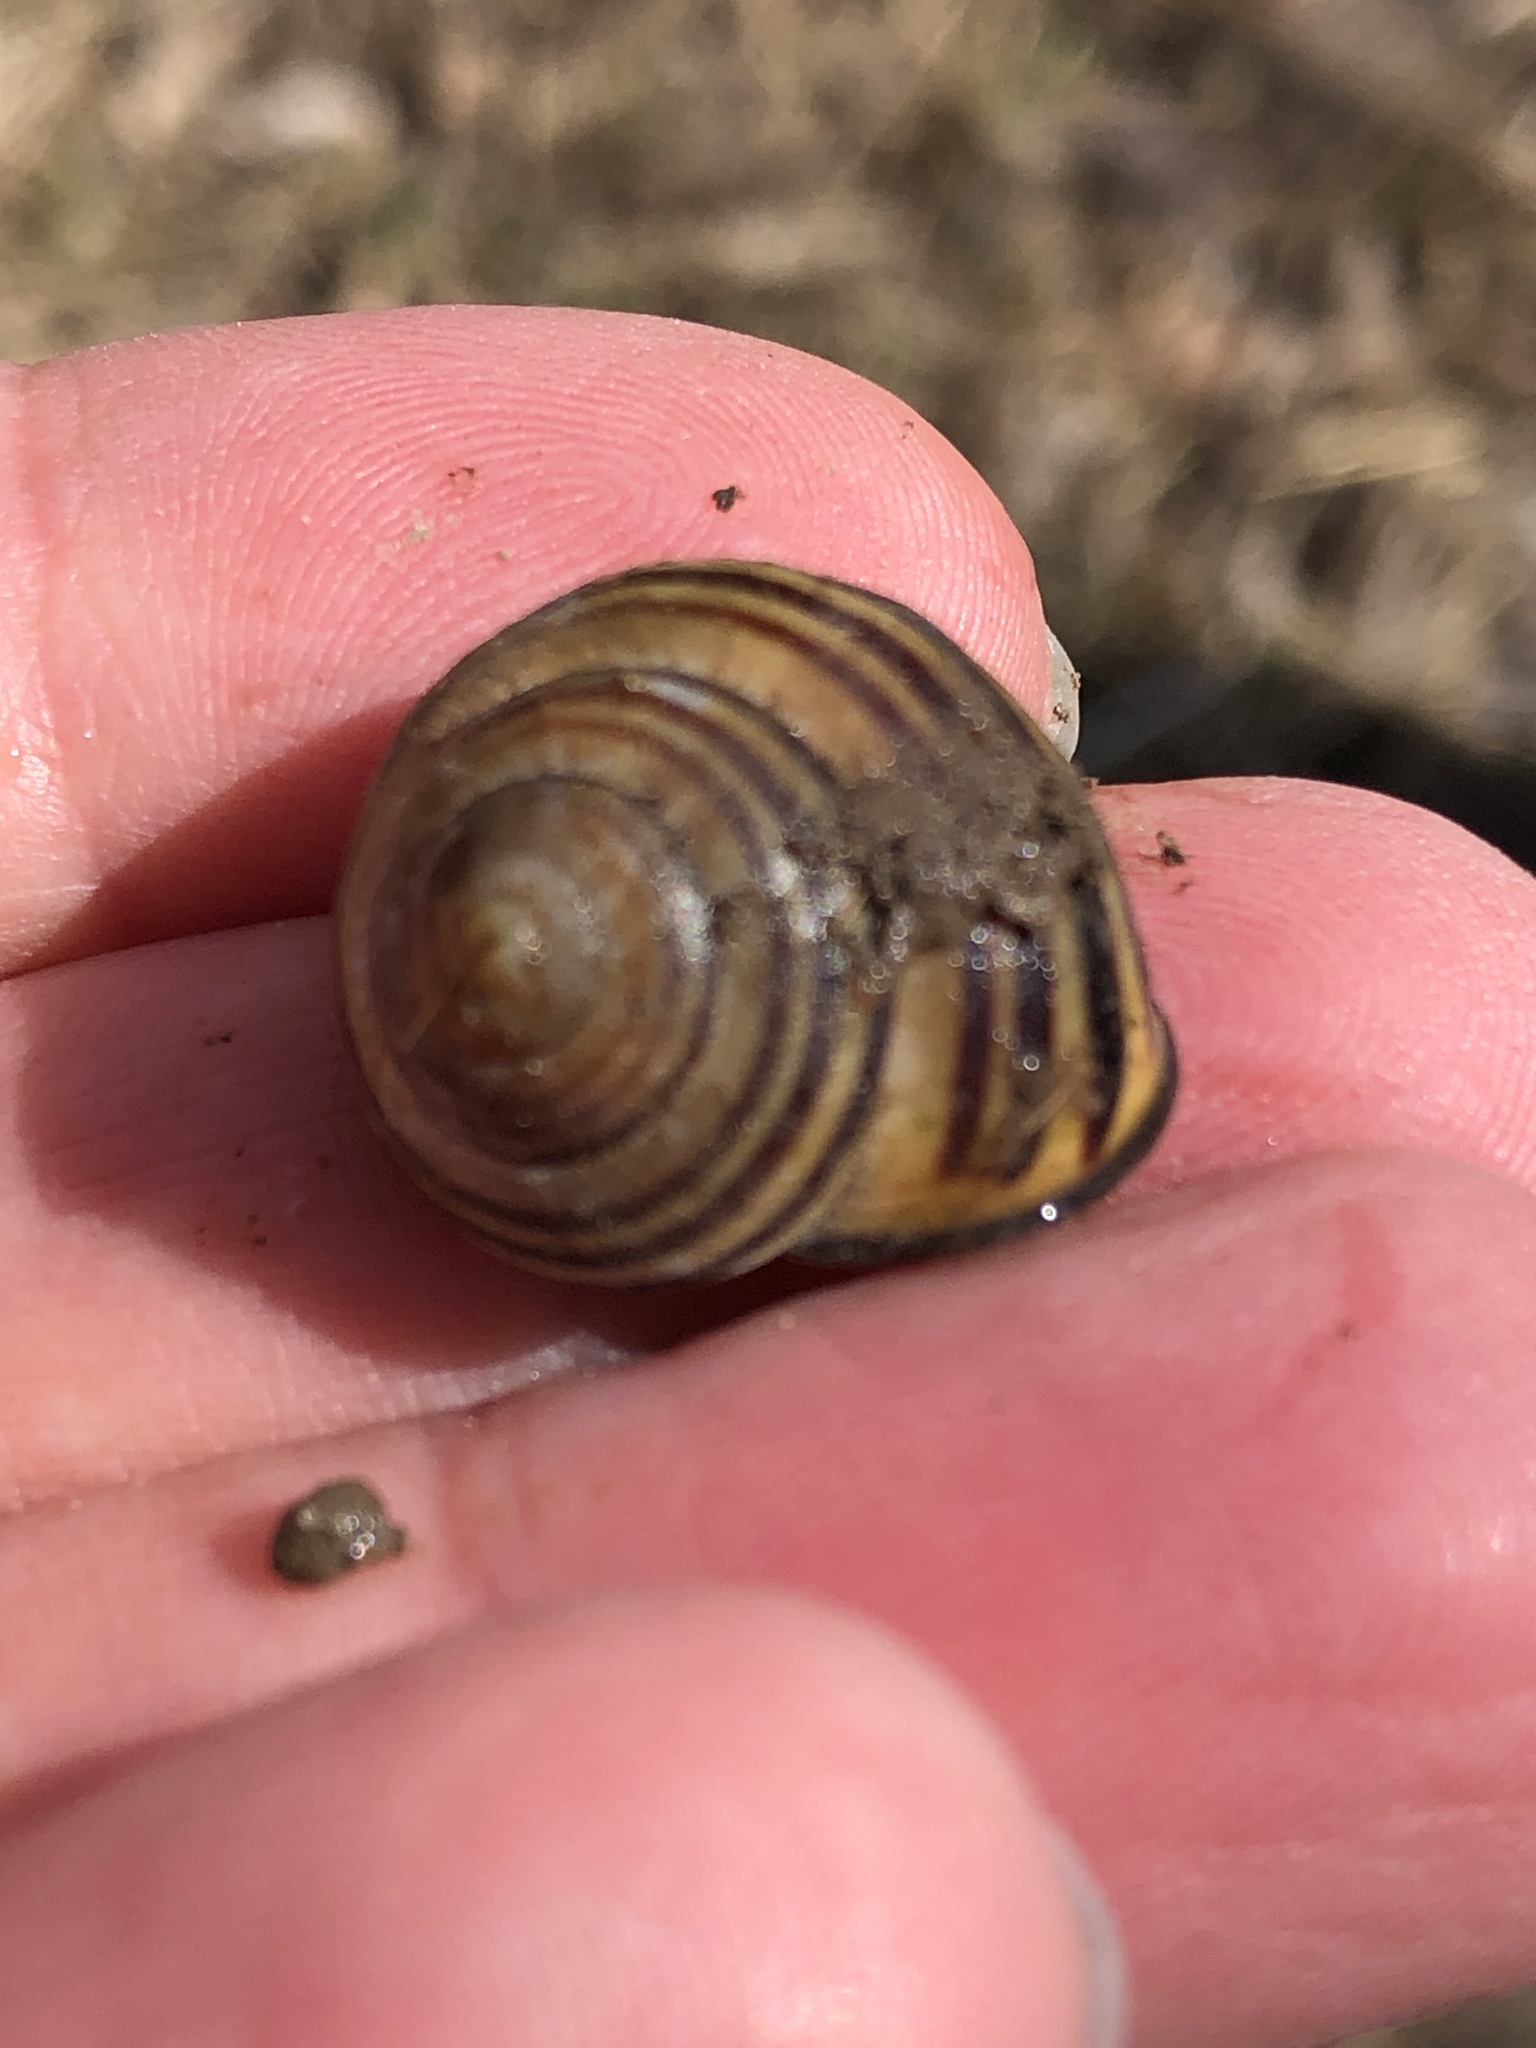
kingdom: Animalia
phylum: Mollusca
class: Gastropoda
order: Stylommatophora
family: Helicidae
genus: Cepaea
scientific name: Cepaea nemoralis
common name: Grovesnail
